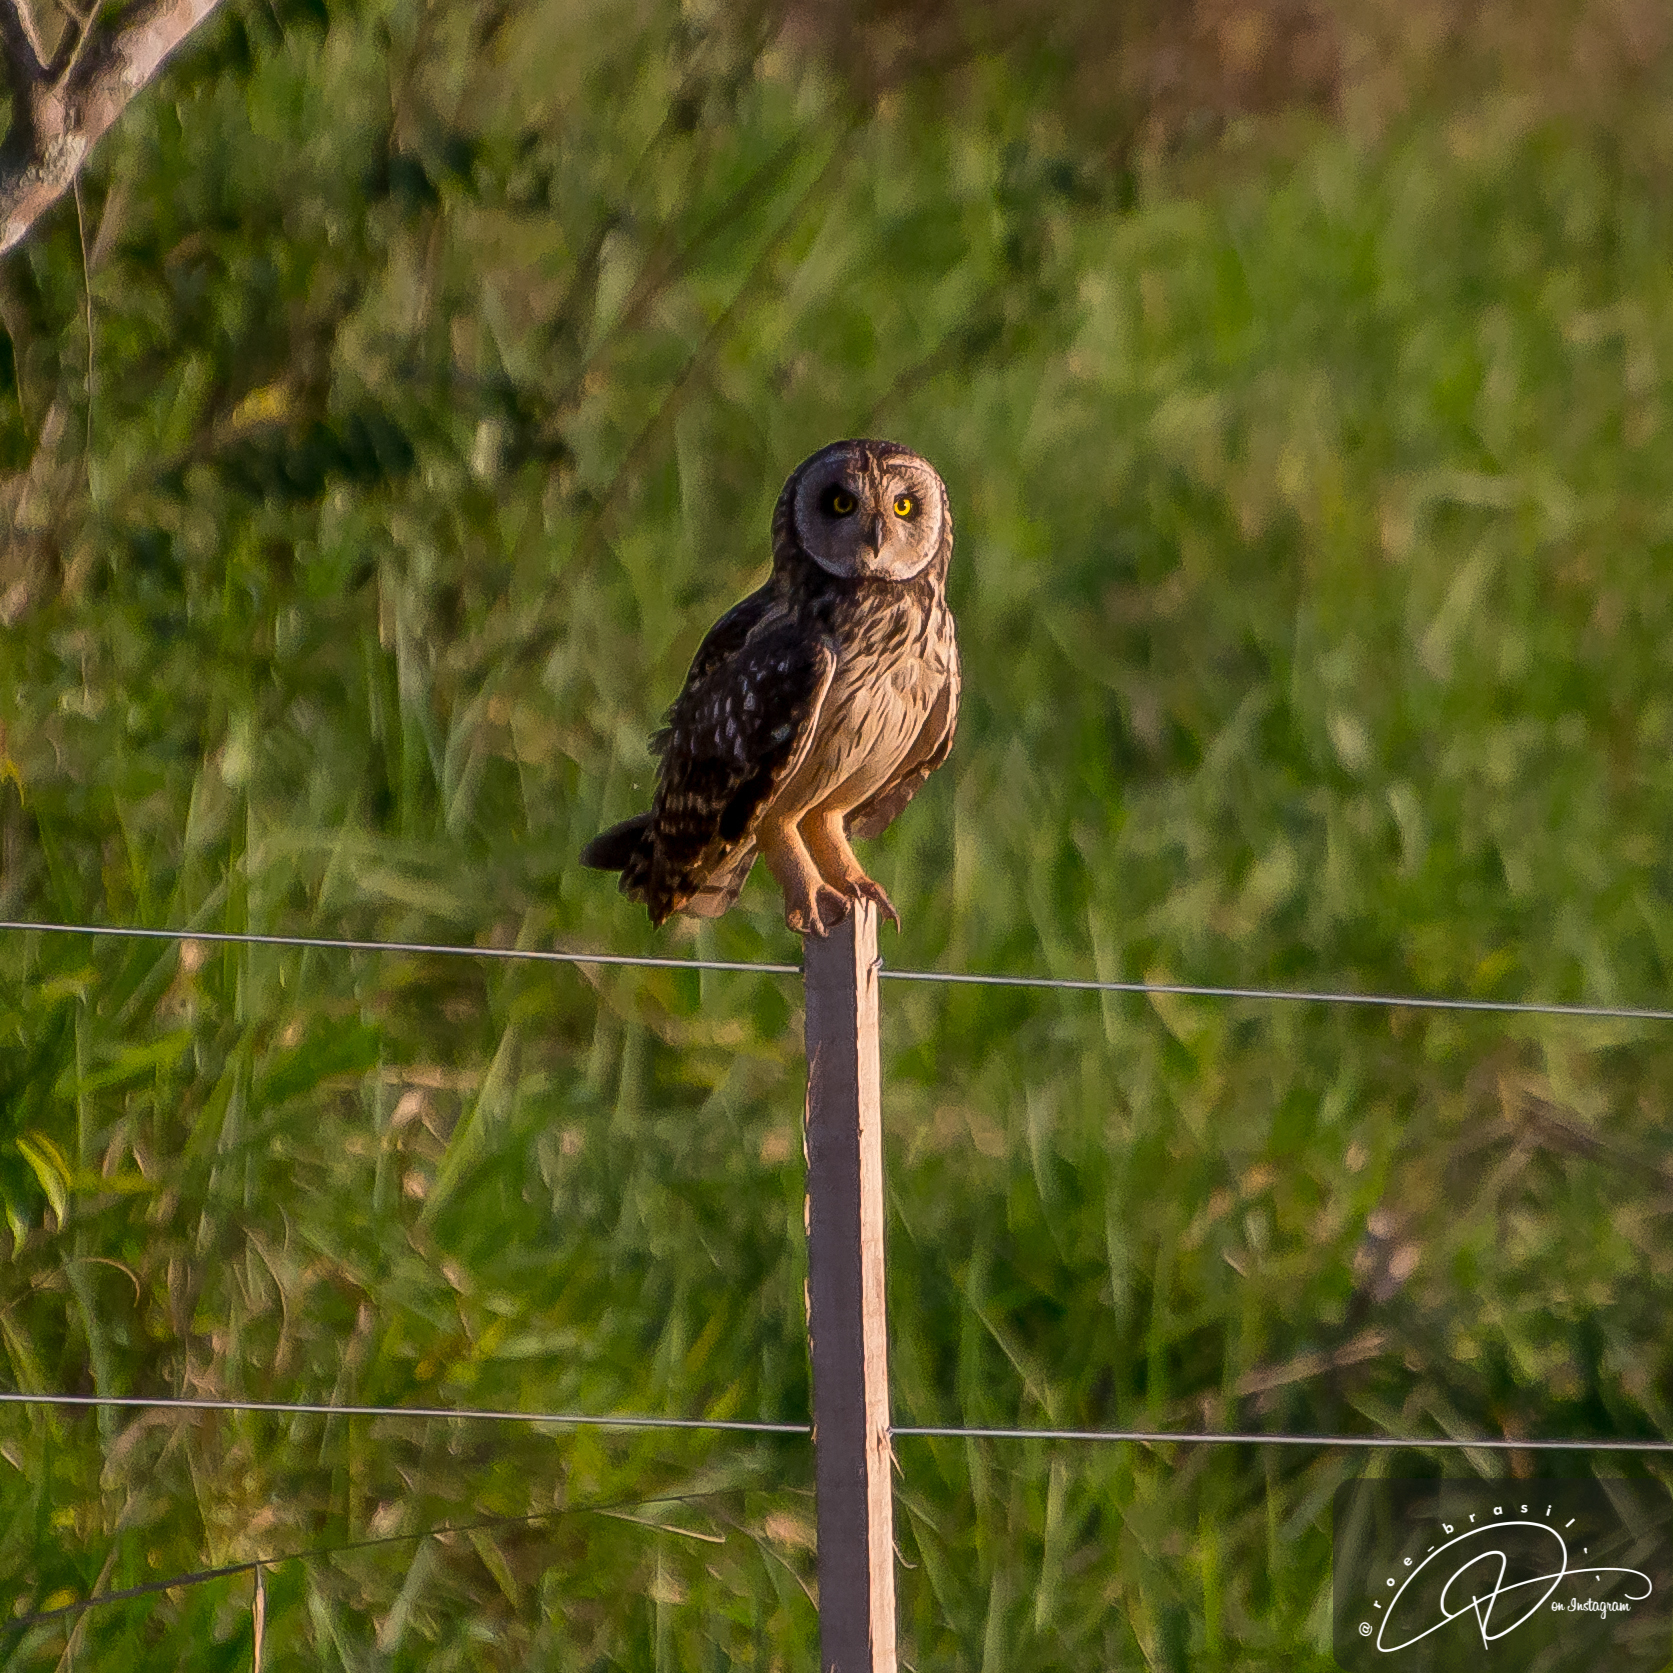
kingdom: Animalia
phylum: Chordata
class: Aves
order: Strigiformes
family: Strigidae
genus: Asio
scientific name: Asio flammeus
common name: Short-eared owl
